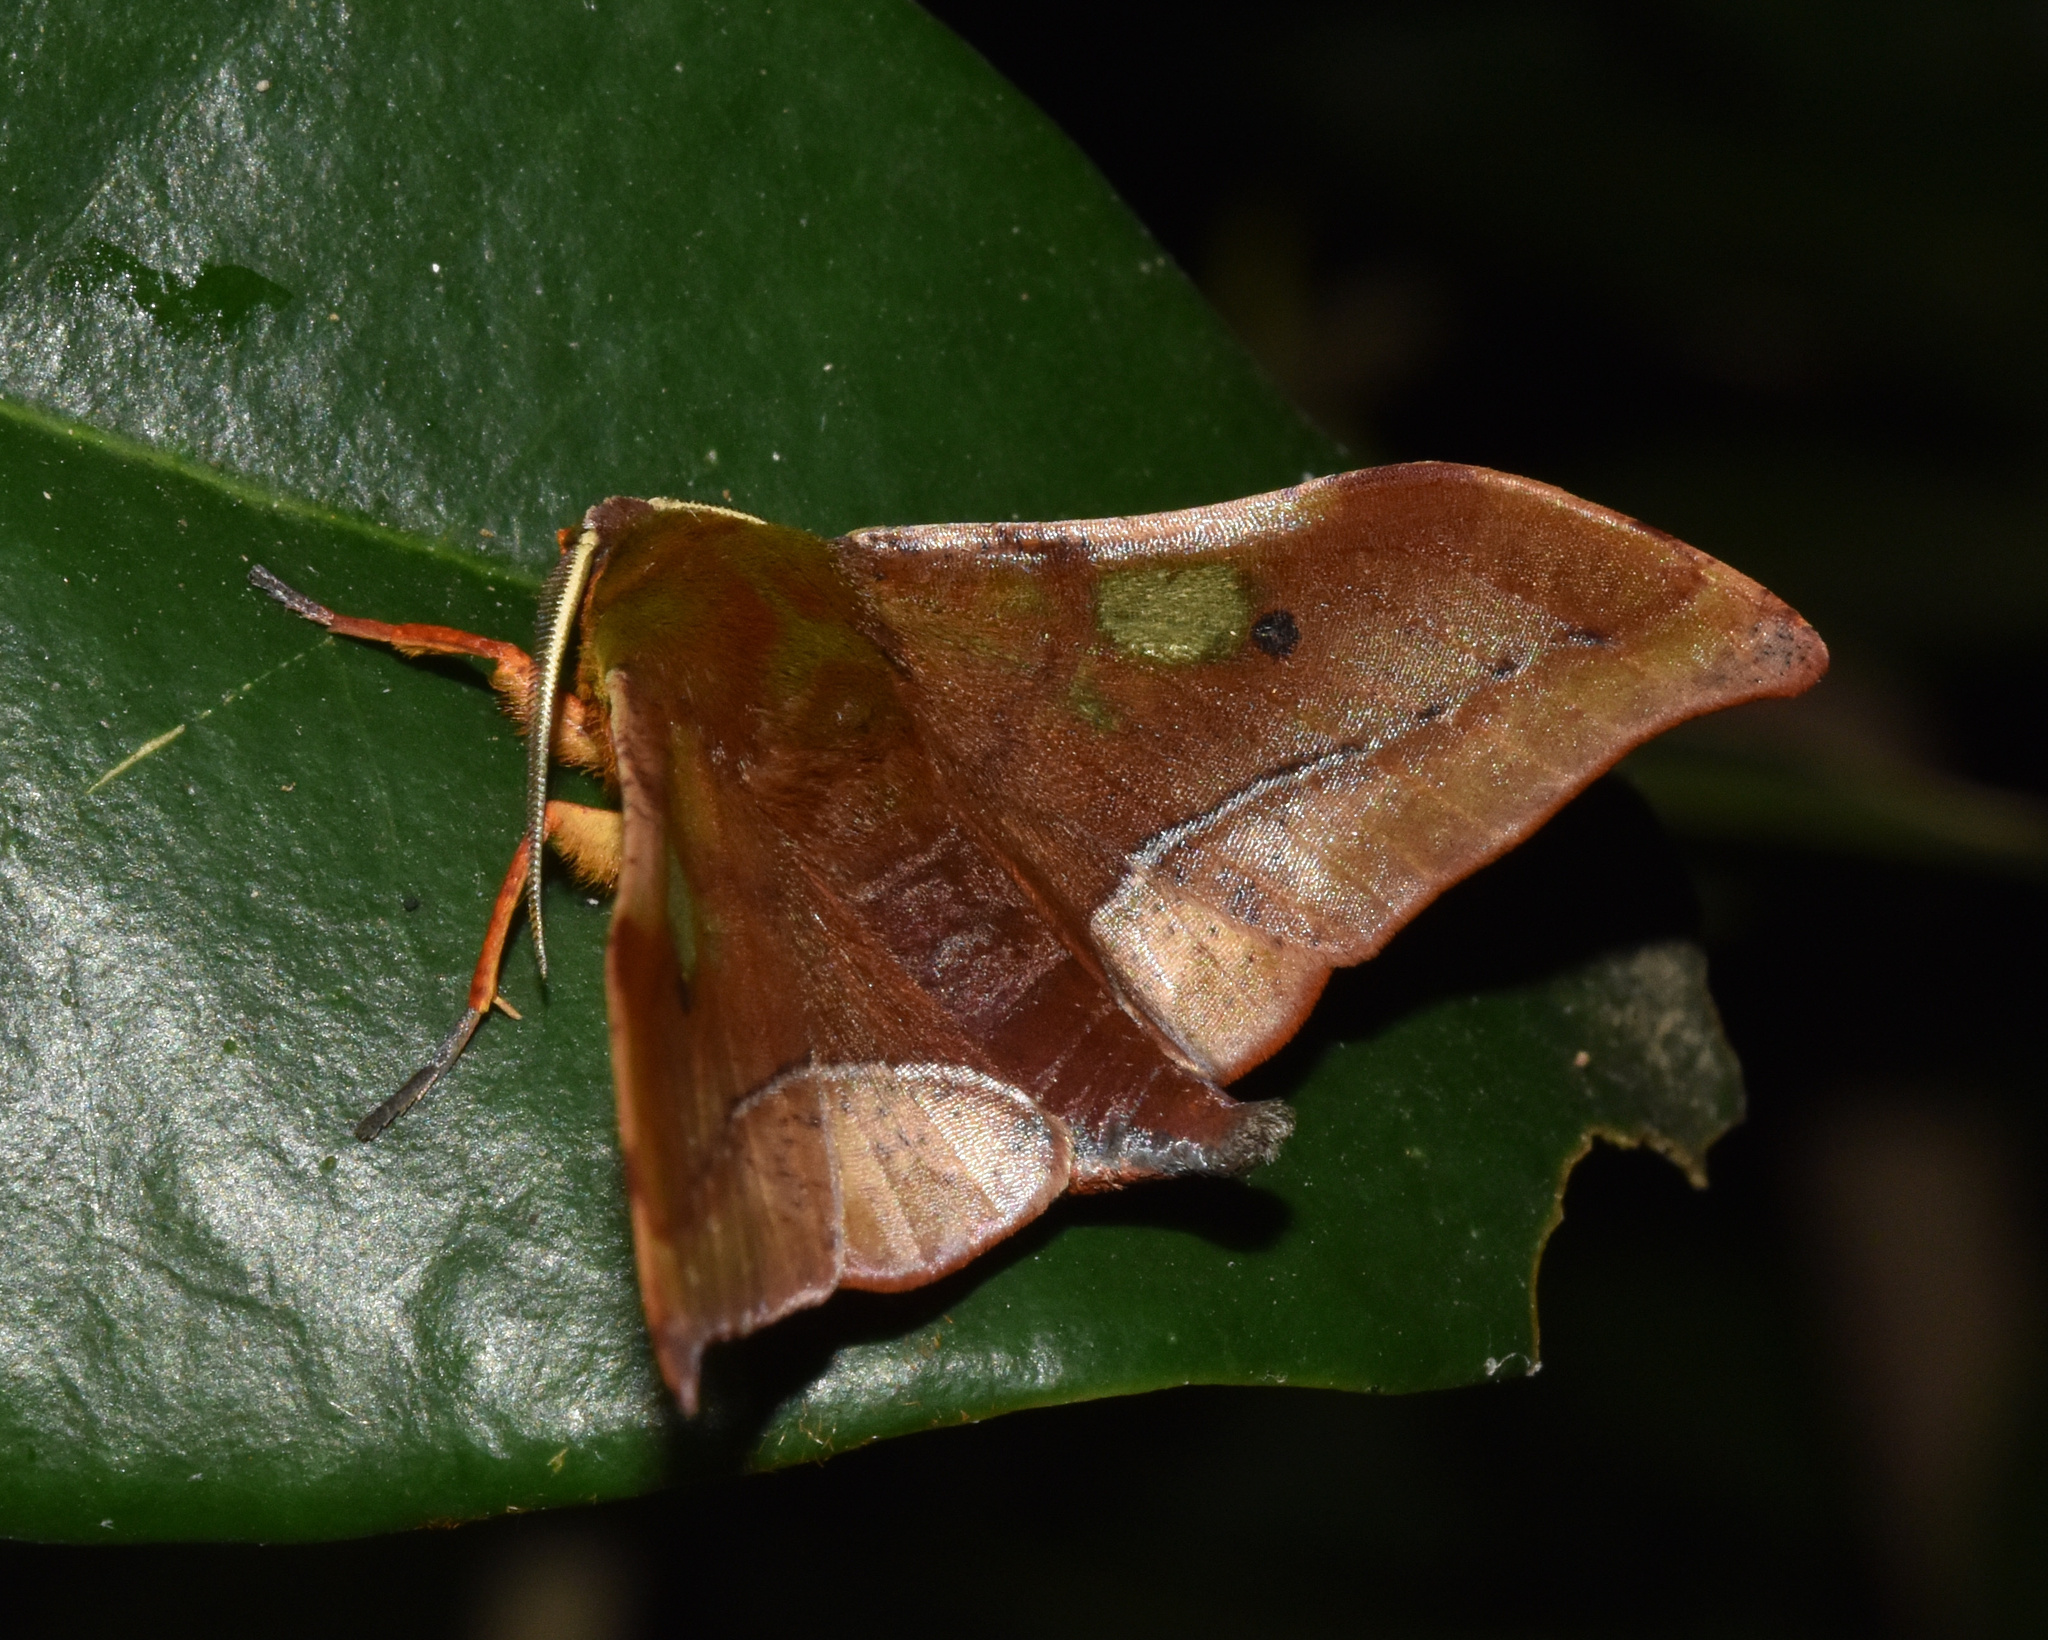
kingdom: Animalia
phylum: Arthropoda
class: Insecta
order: Lepidoptera
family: Geometridae
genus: Plegapteryx
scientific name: Plegapteryx anomalus
